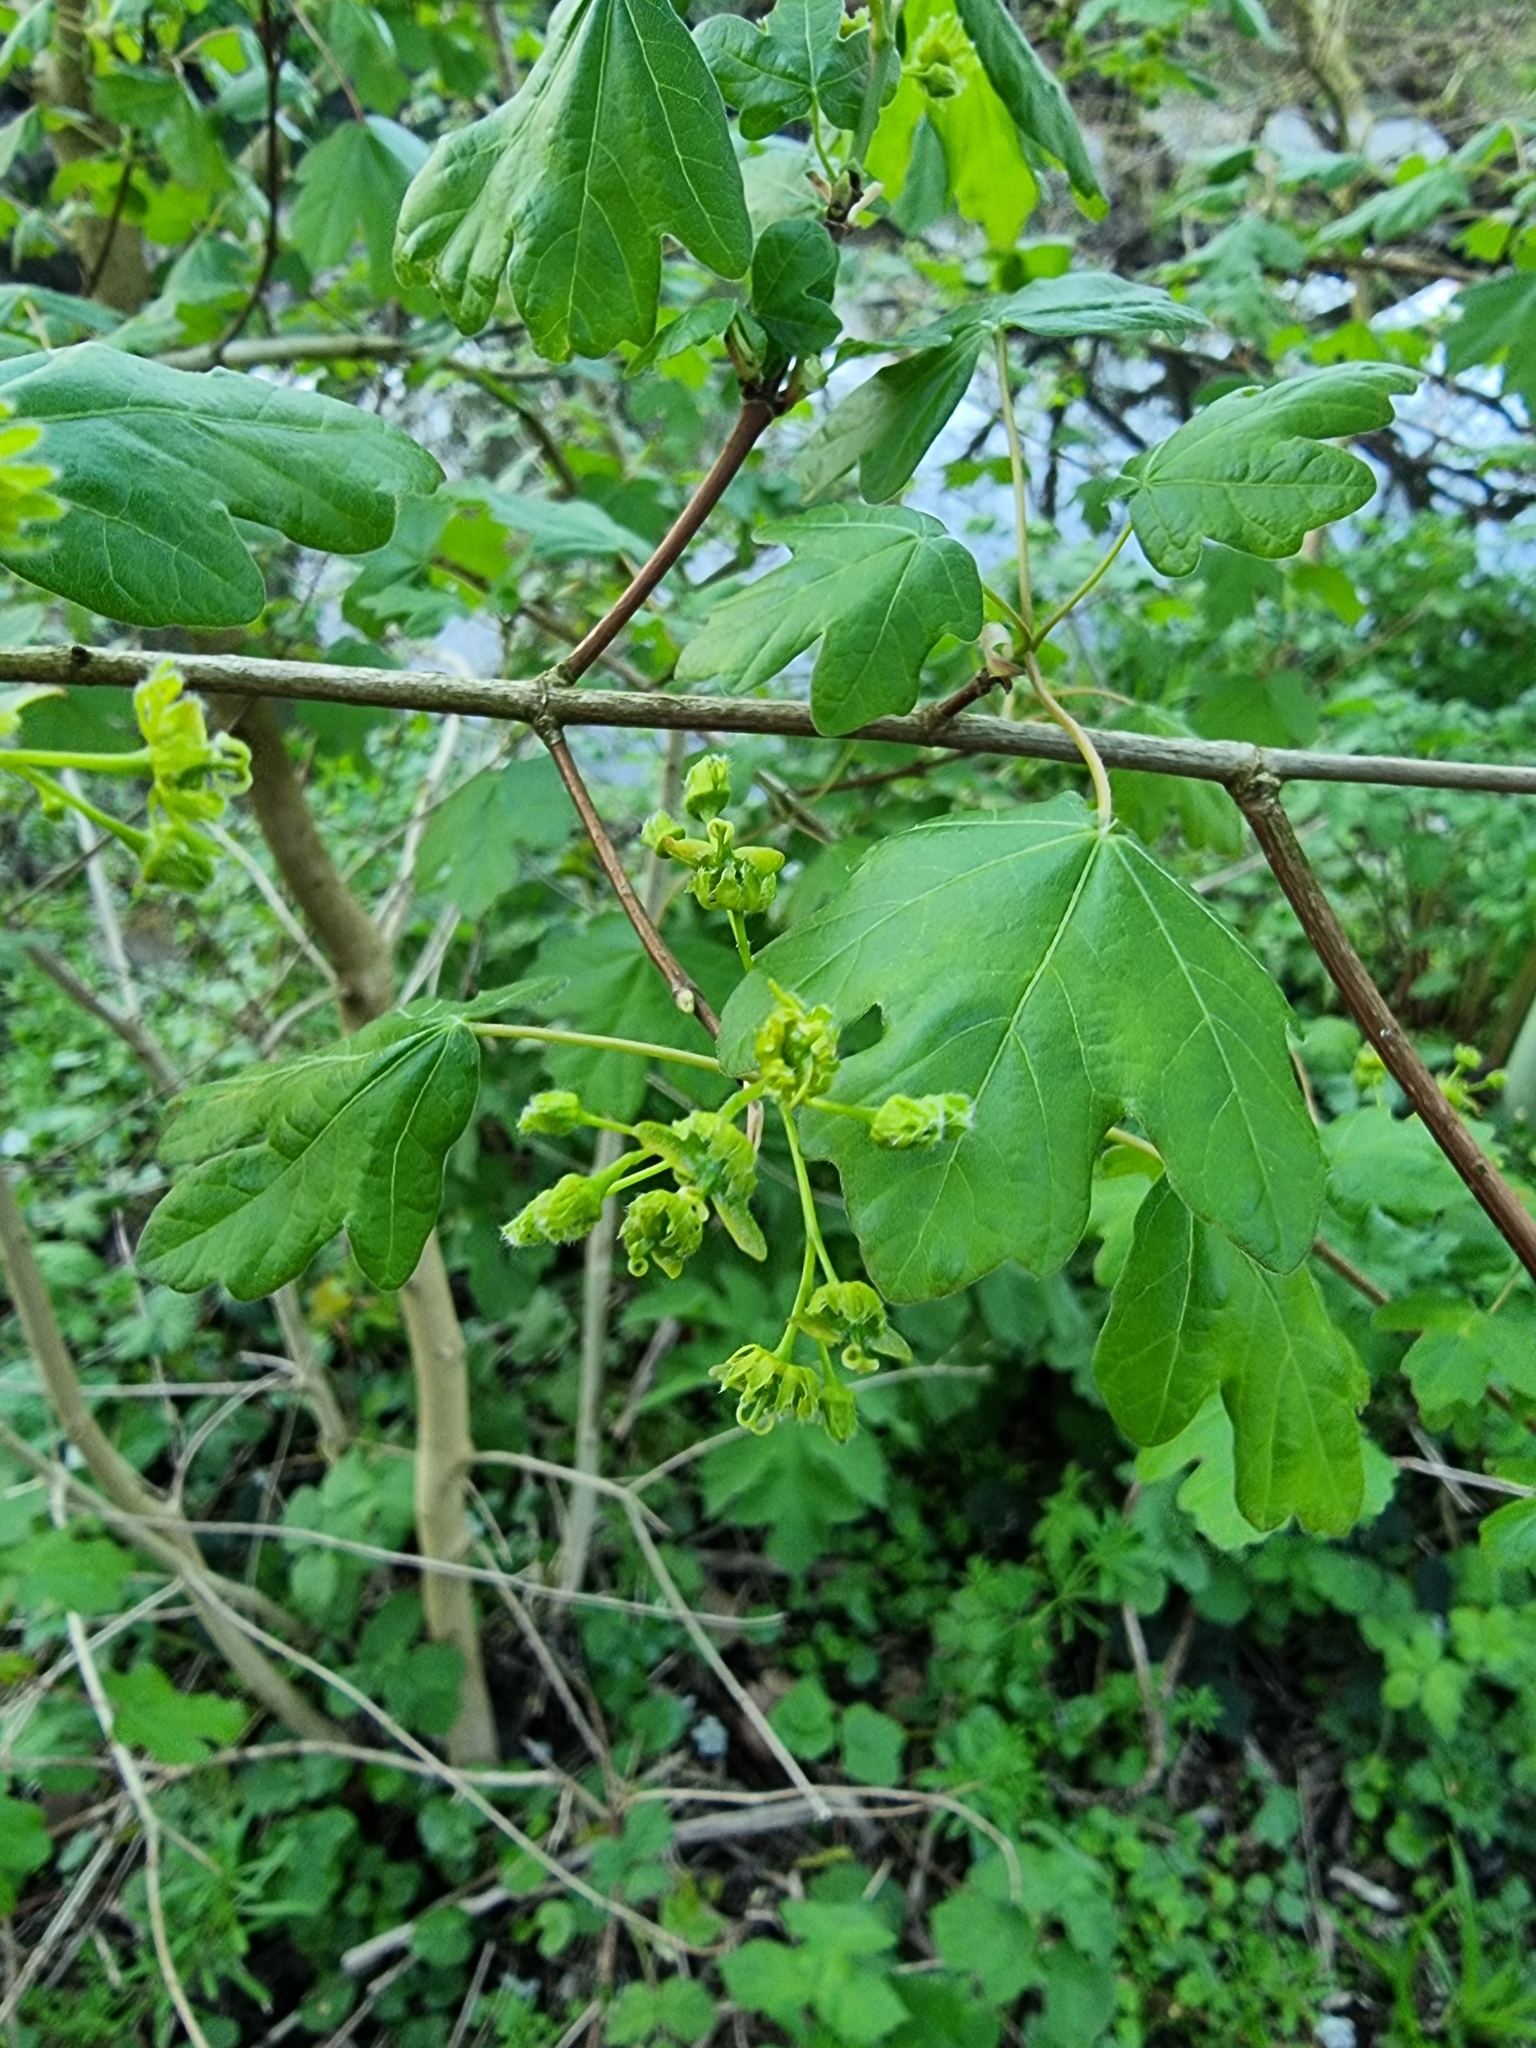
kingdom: Plantae
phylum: Tracheophyta
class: Magnoliopsida
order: Sapindales
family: Sapindaceae
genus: Acer
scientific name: Acer campestre
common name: Field maple
